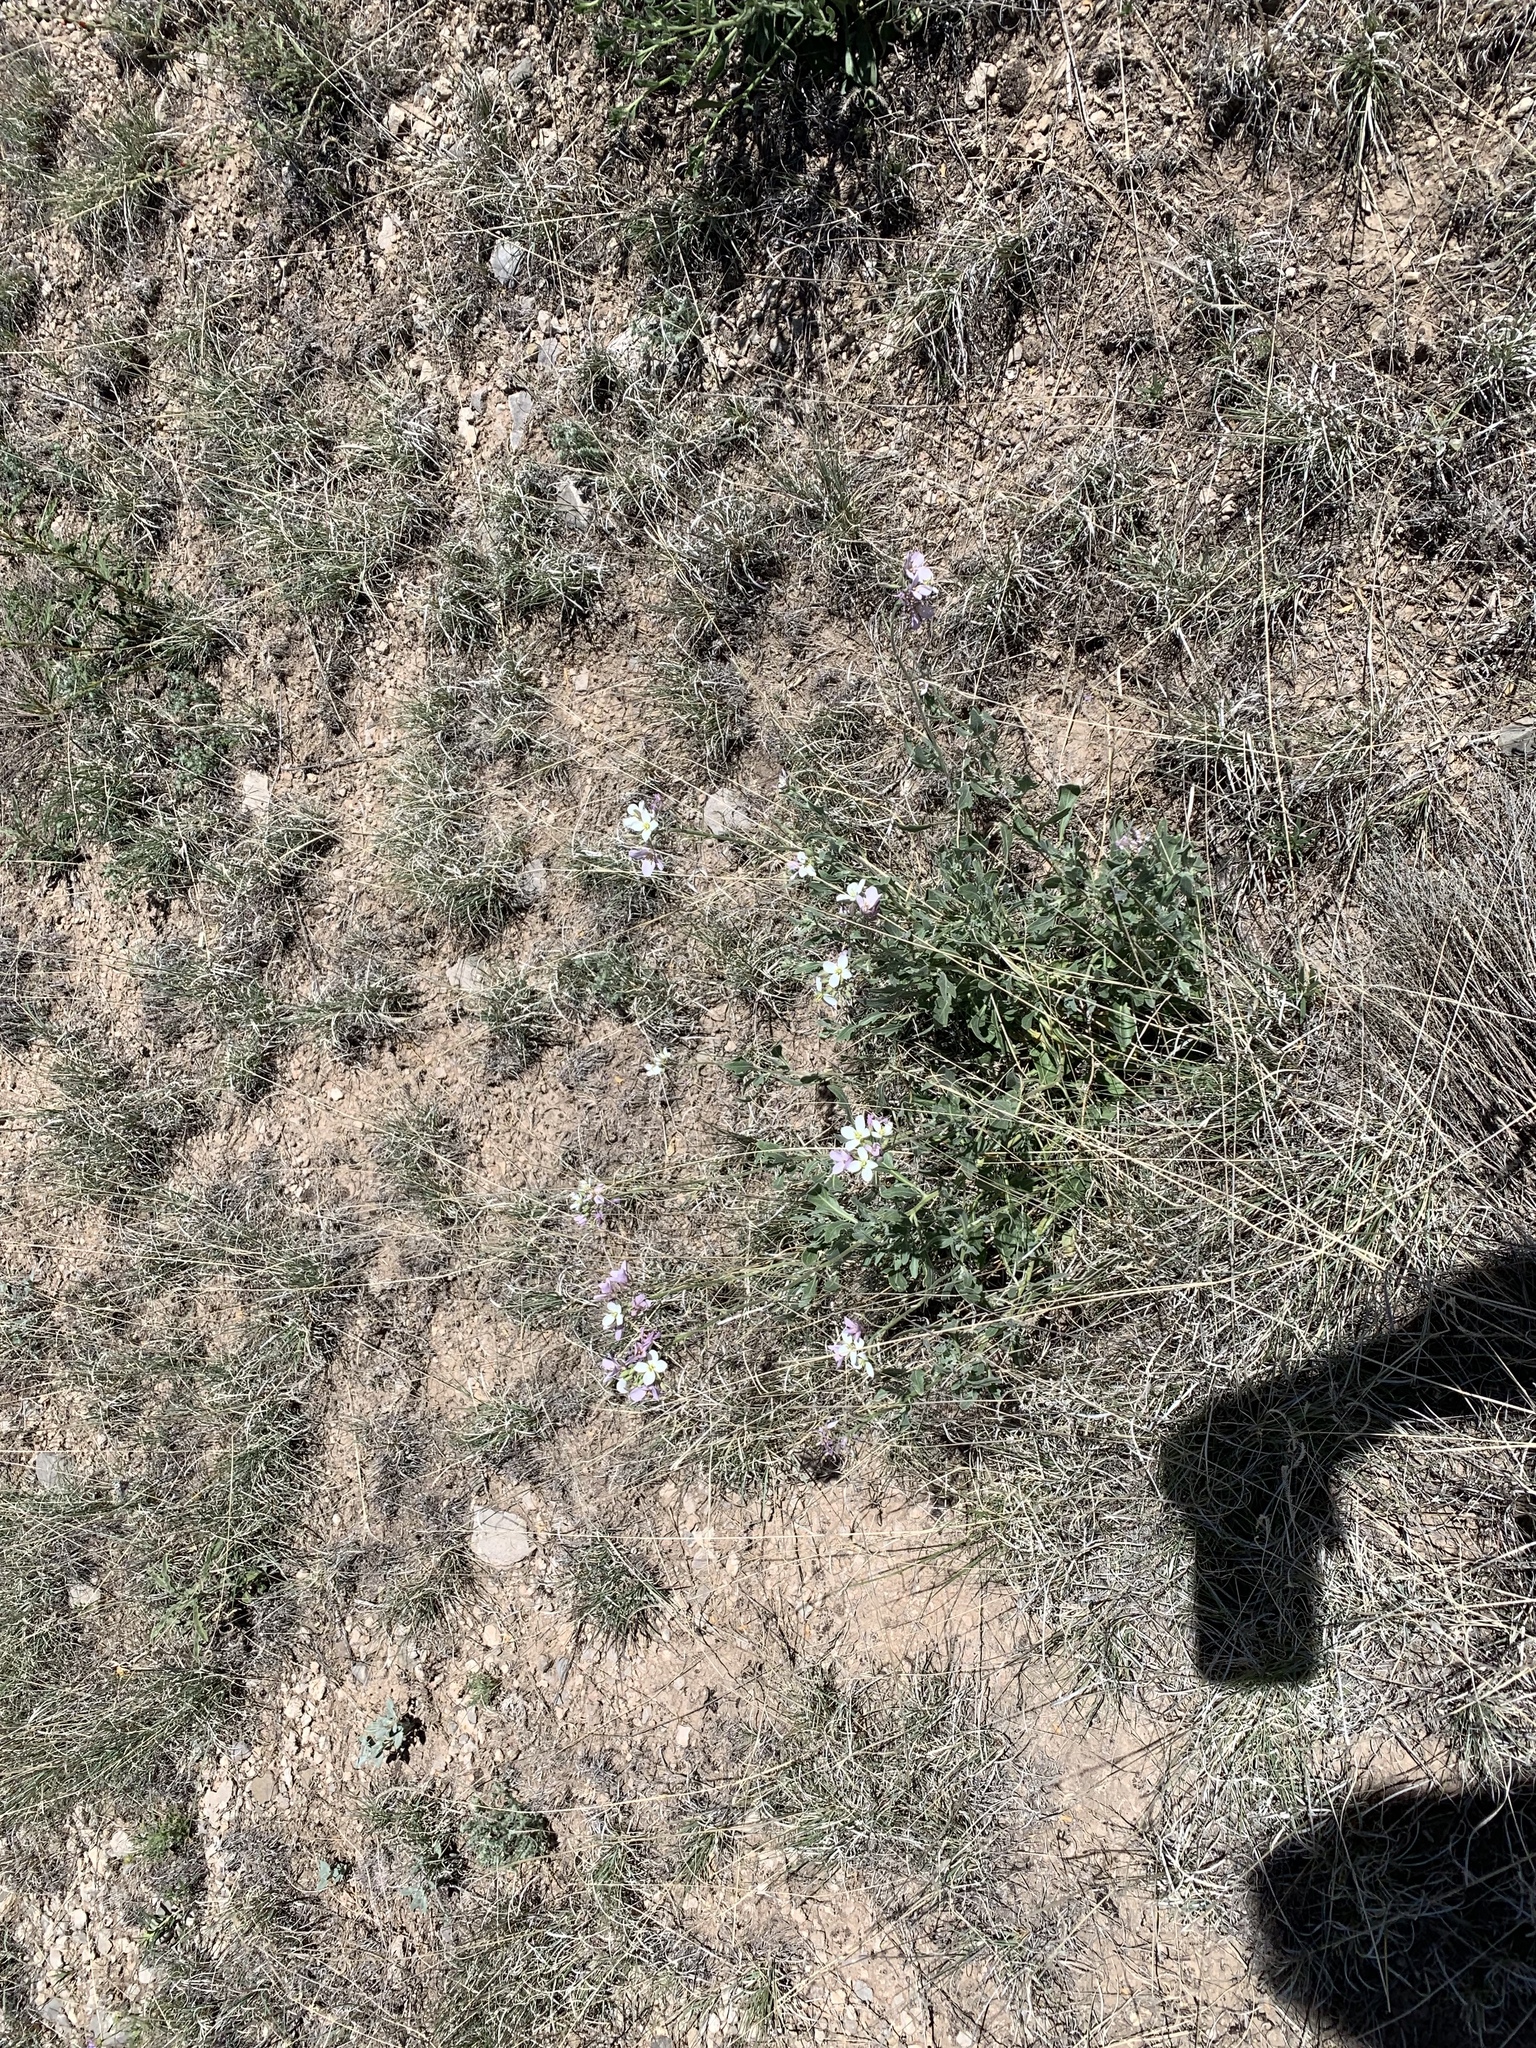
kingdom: Plantae
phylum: Tracheophyta
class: Magnoliopsida
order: Brassicales
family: Brassicaceae
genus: Nerisyrenia
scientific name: Nerisyrenia camporum
